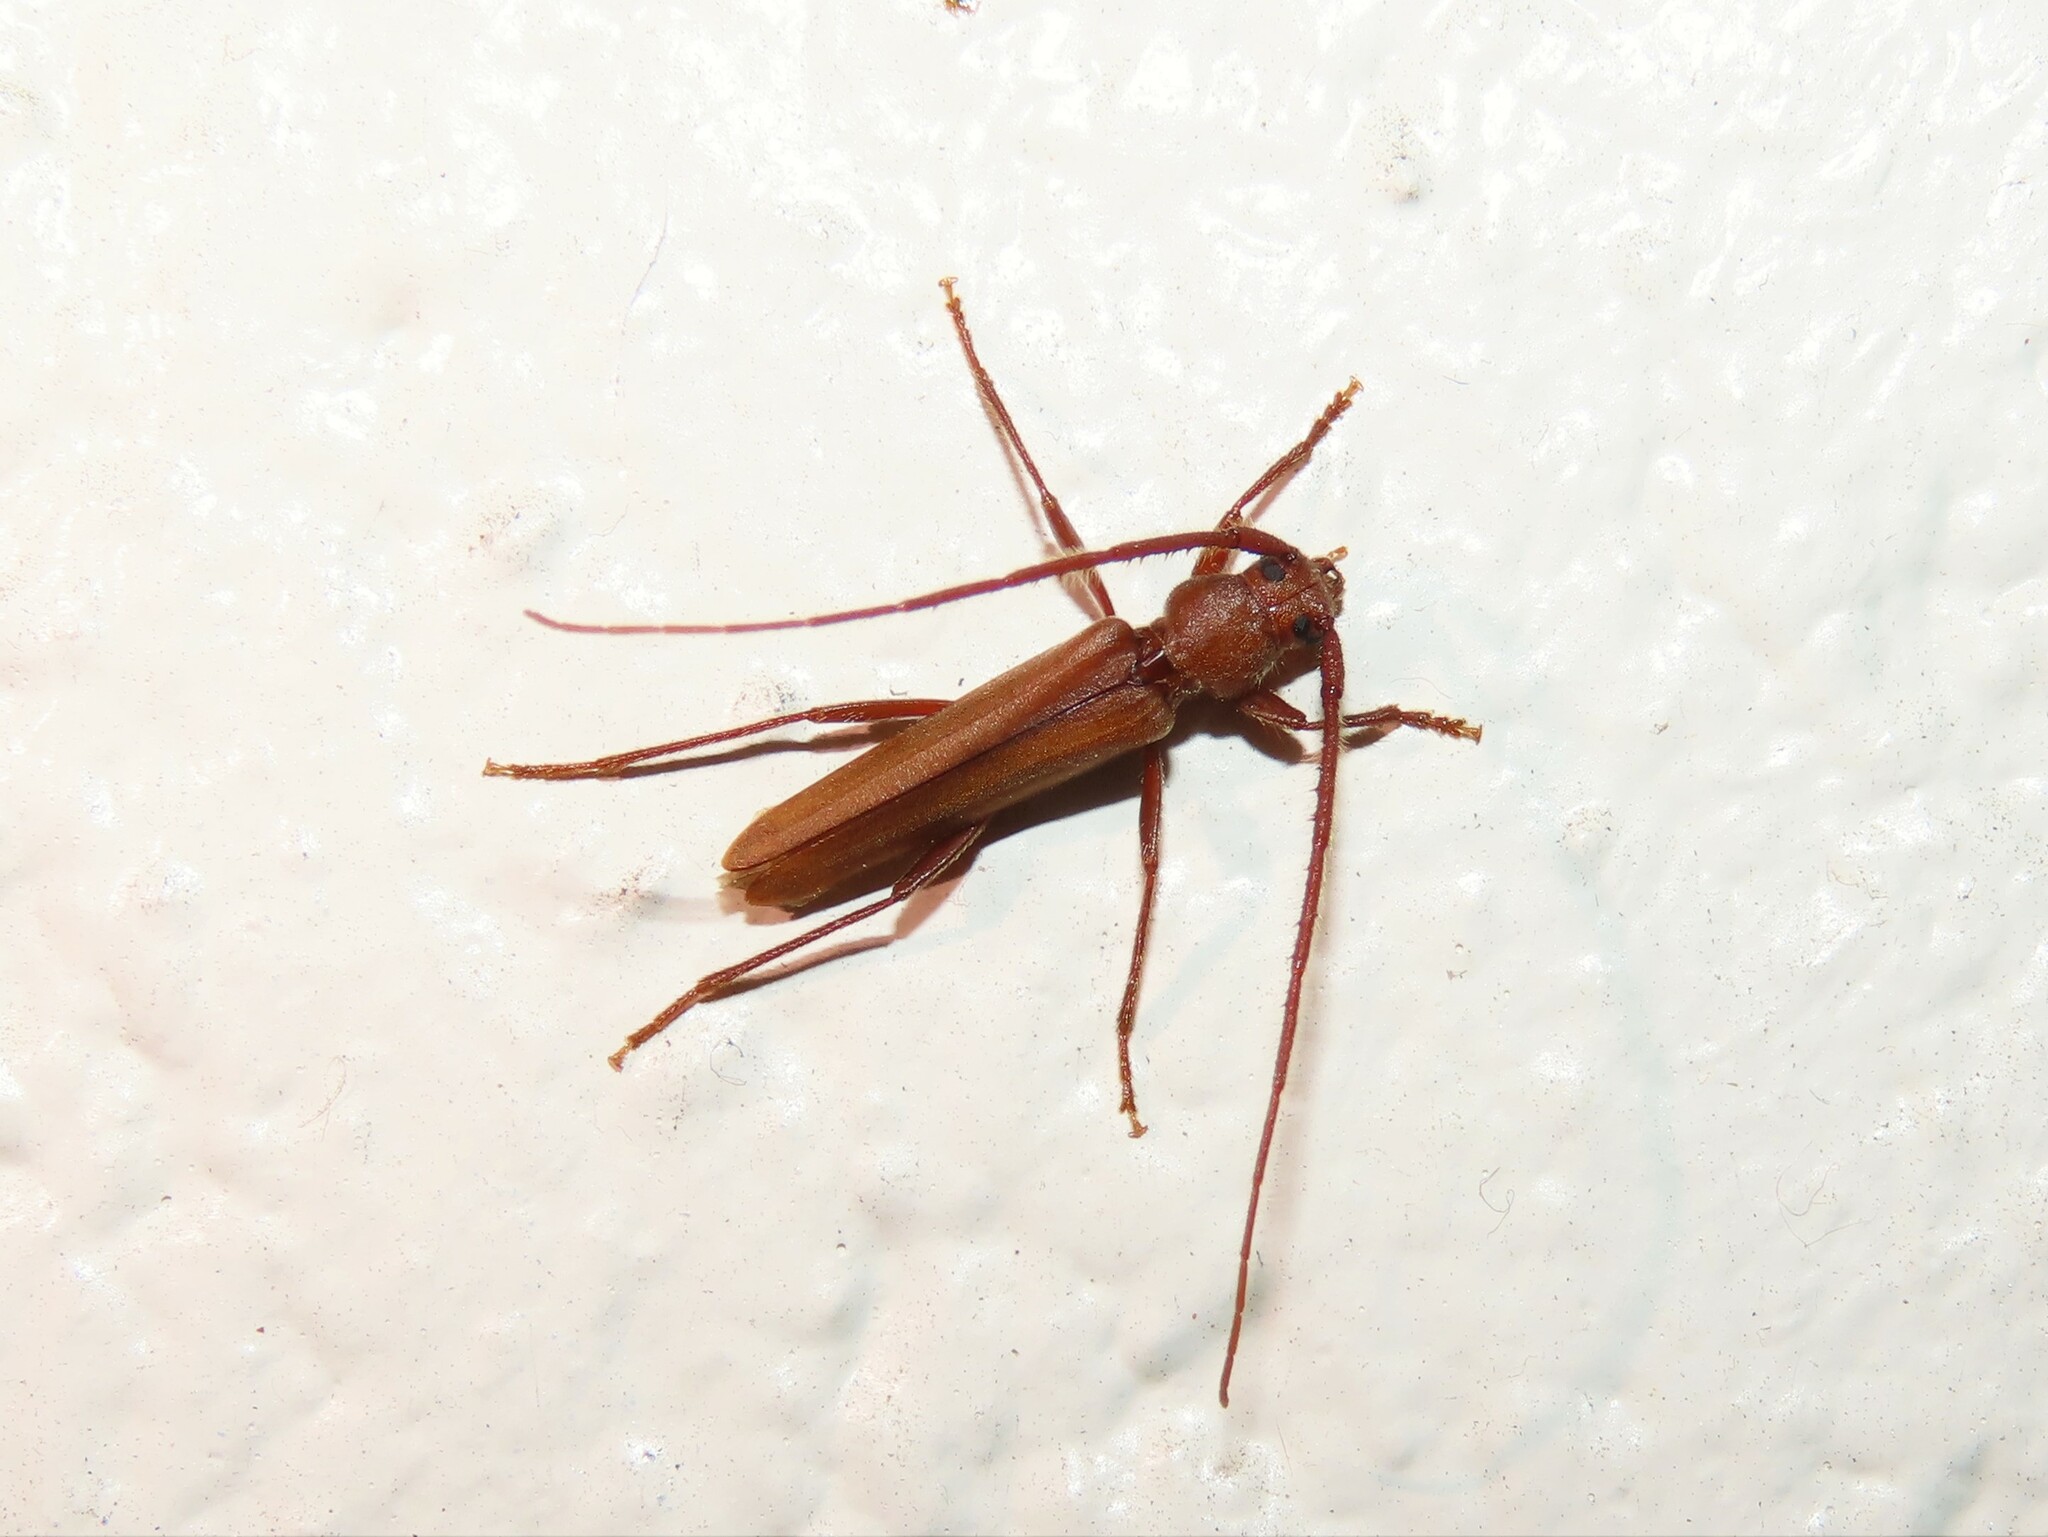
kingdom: Animalia
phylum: Arthropoda
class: Insecta
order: Coleoptera
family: Cerambycidae
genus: Oeme
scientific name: Oeme rigida
